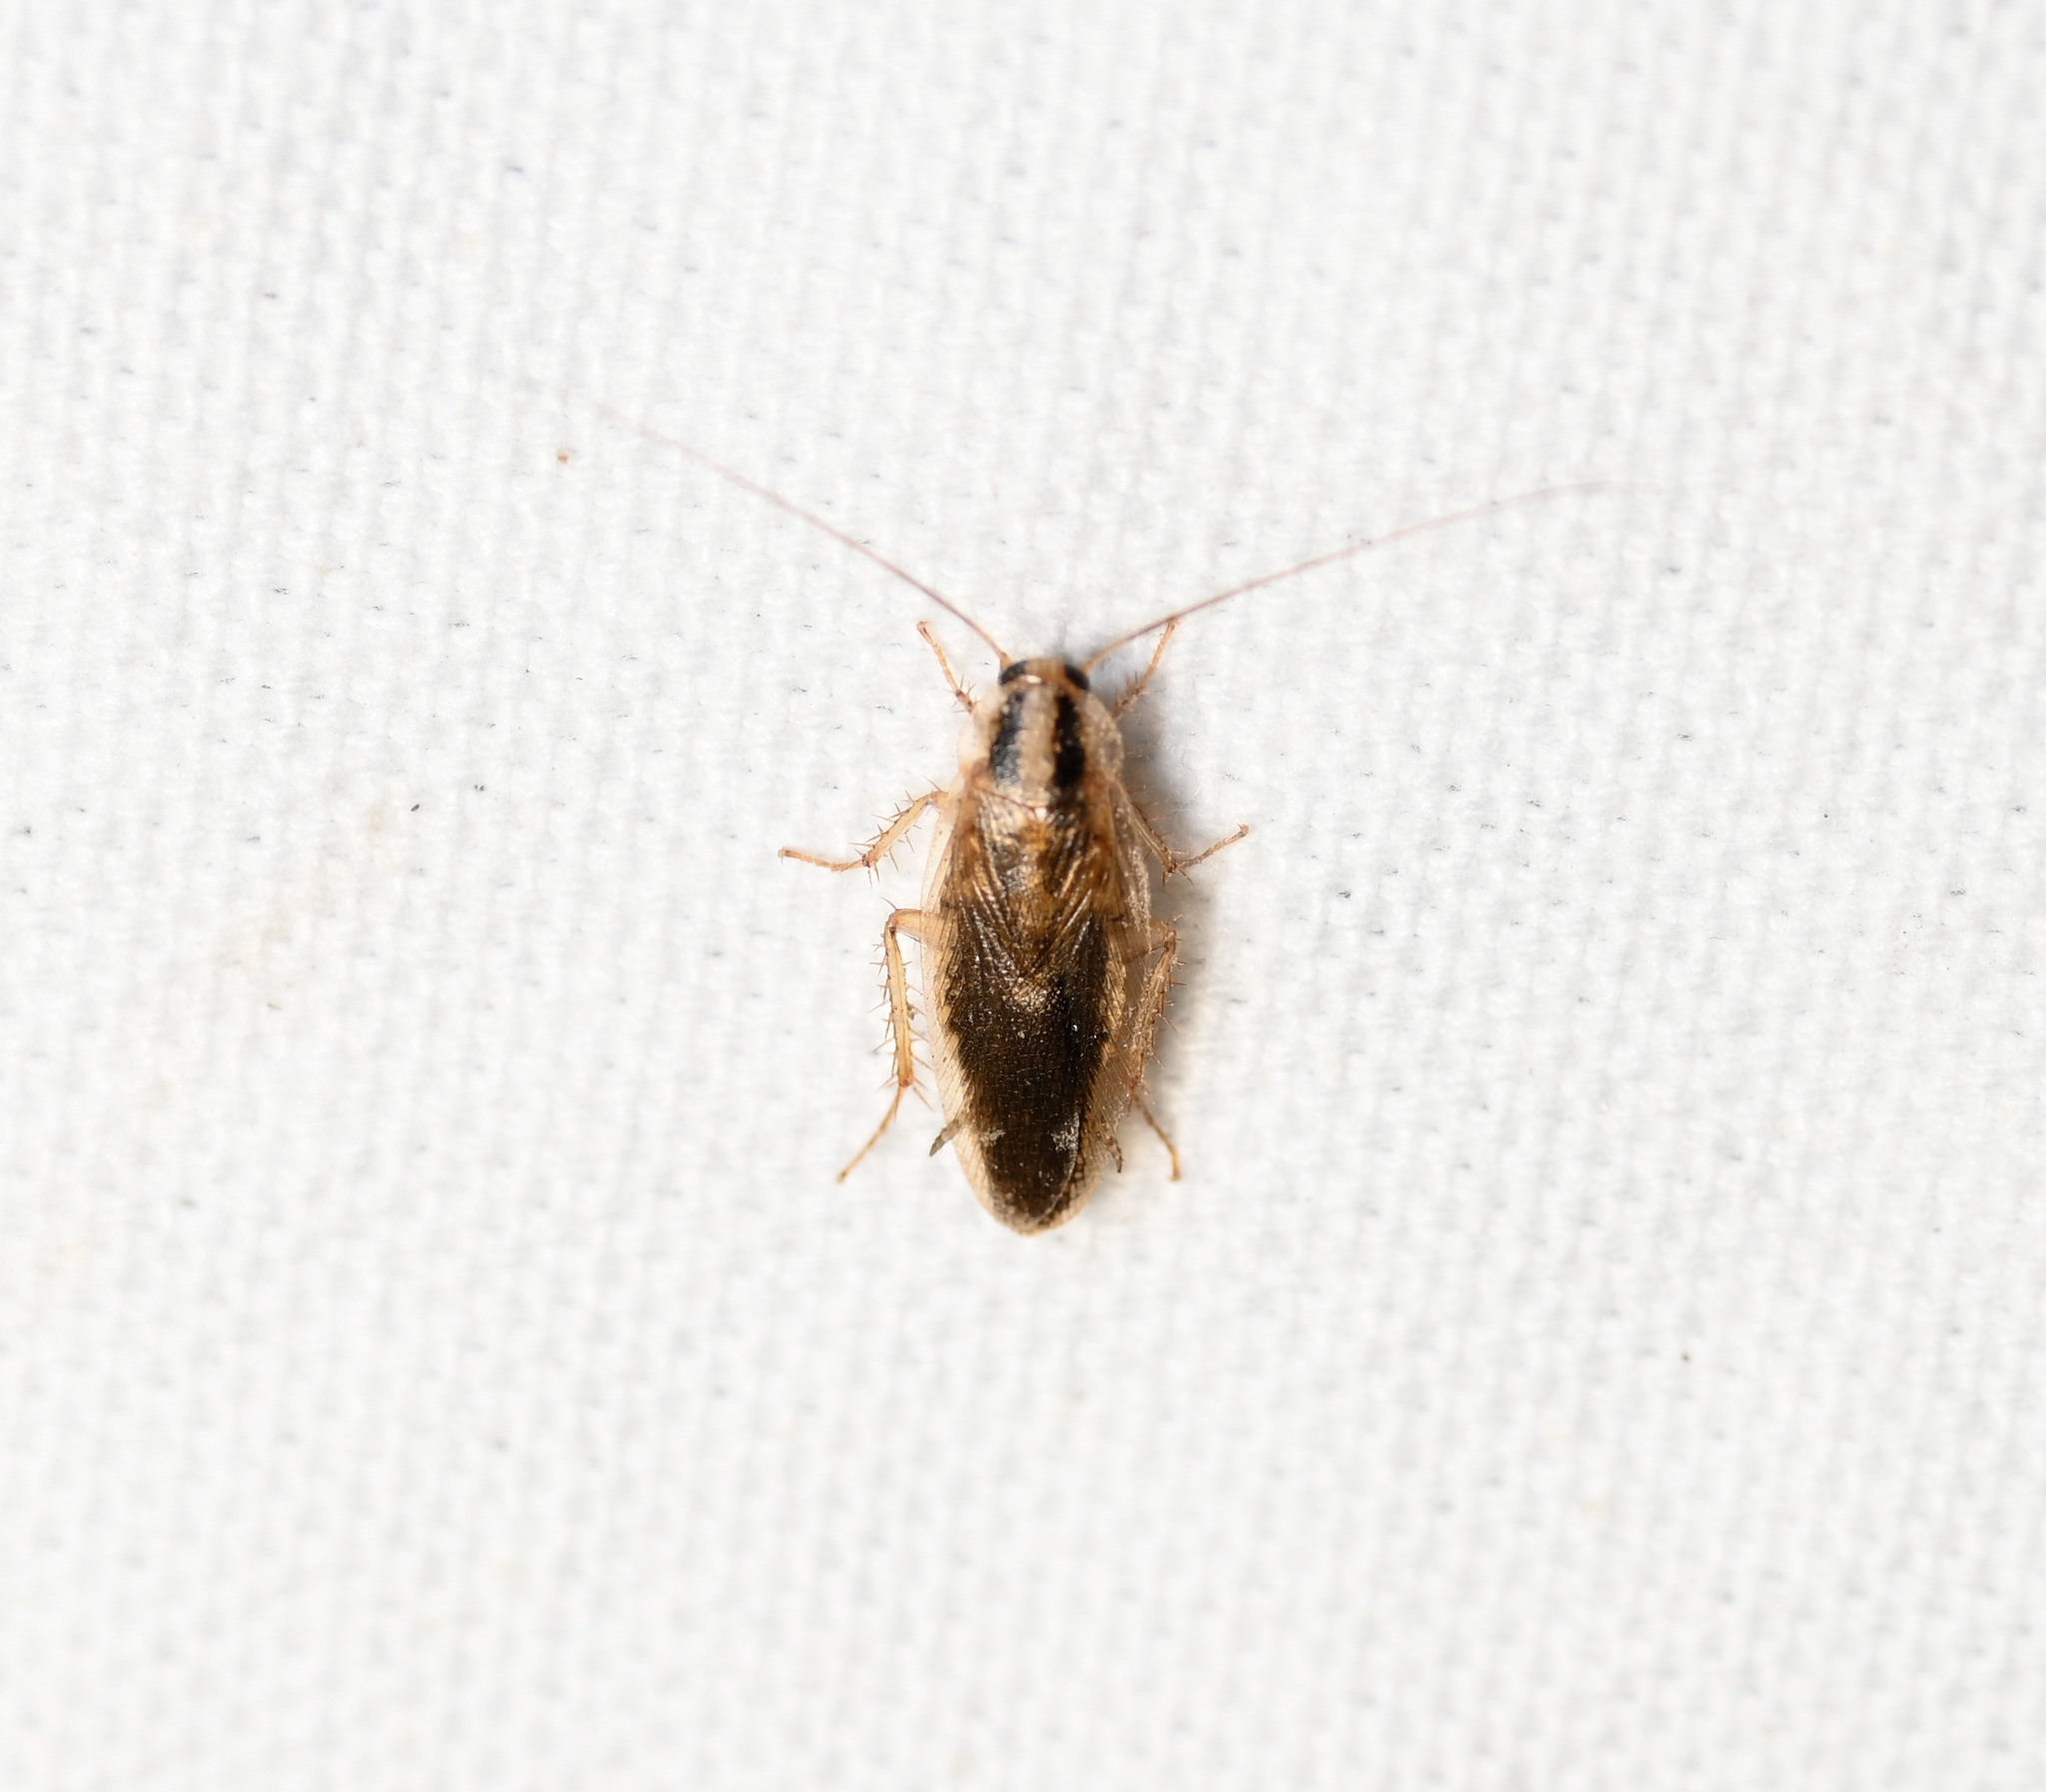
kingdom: Animalia
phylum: Arthropoda
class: Insecta
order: Blattodea
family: Ectobiidae
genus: Blattella
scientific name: Blattella asahinai
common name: Asian cockroach
